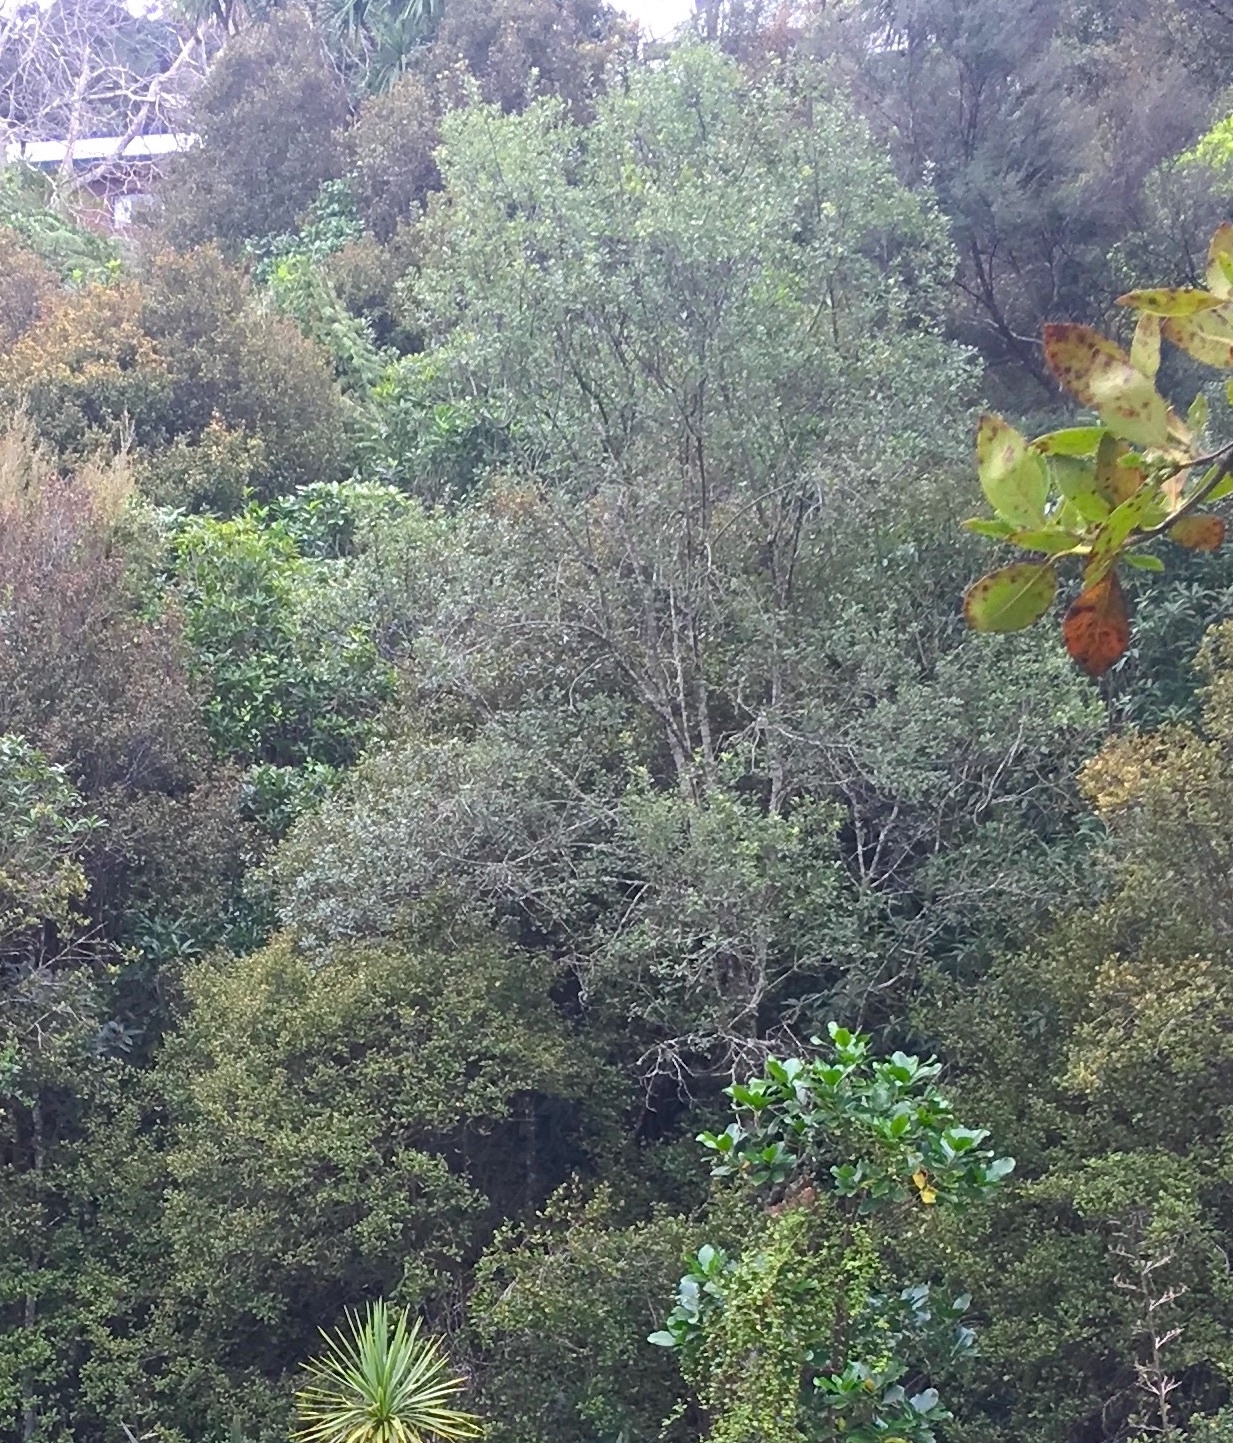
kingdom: Plantae
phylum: Tracheophyta
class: Magnoliopsida
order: Apiales
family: Pittosporaceae
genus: Pittosporum
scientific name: Pittosporum tenuifolium
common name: Kohuhu
